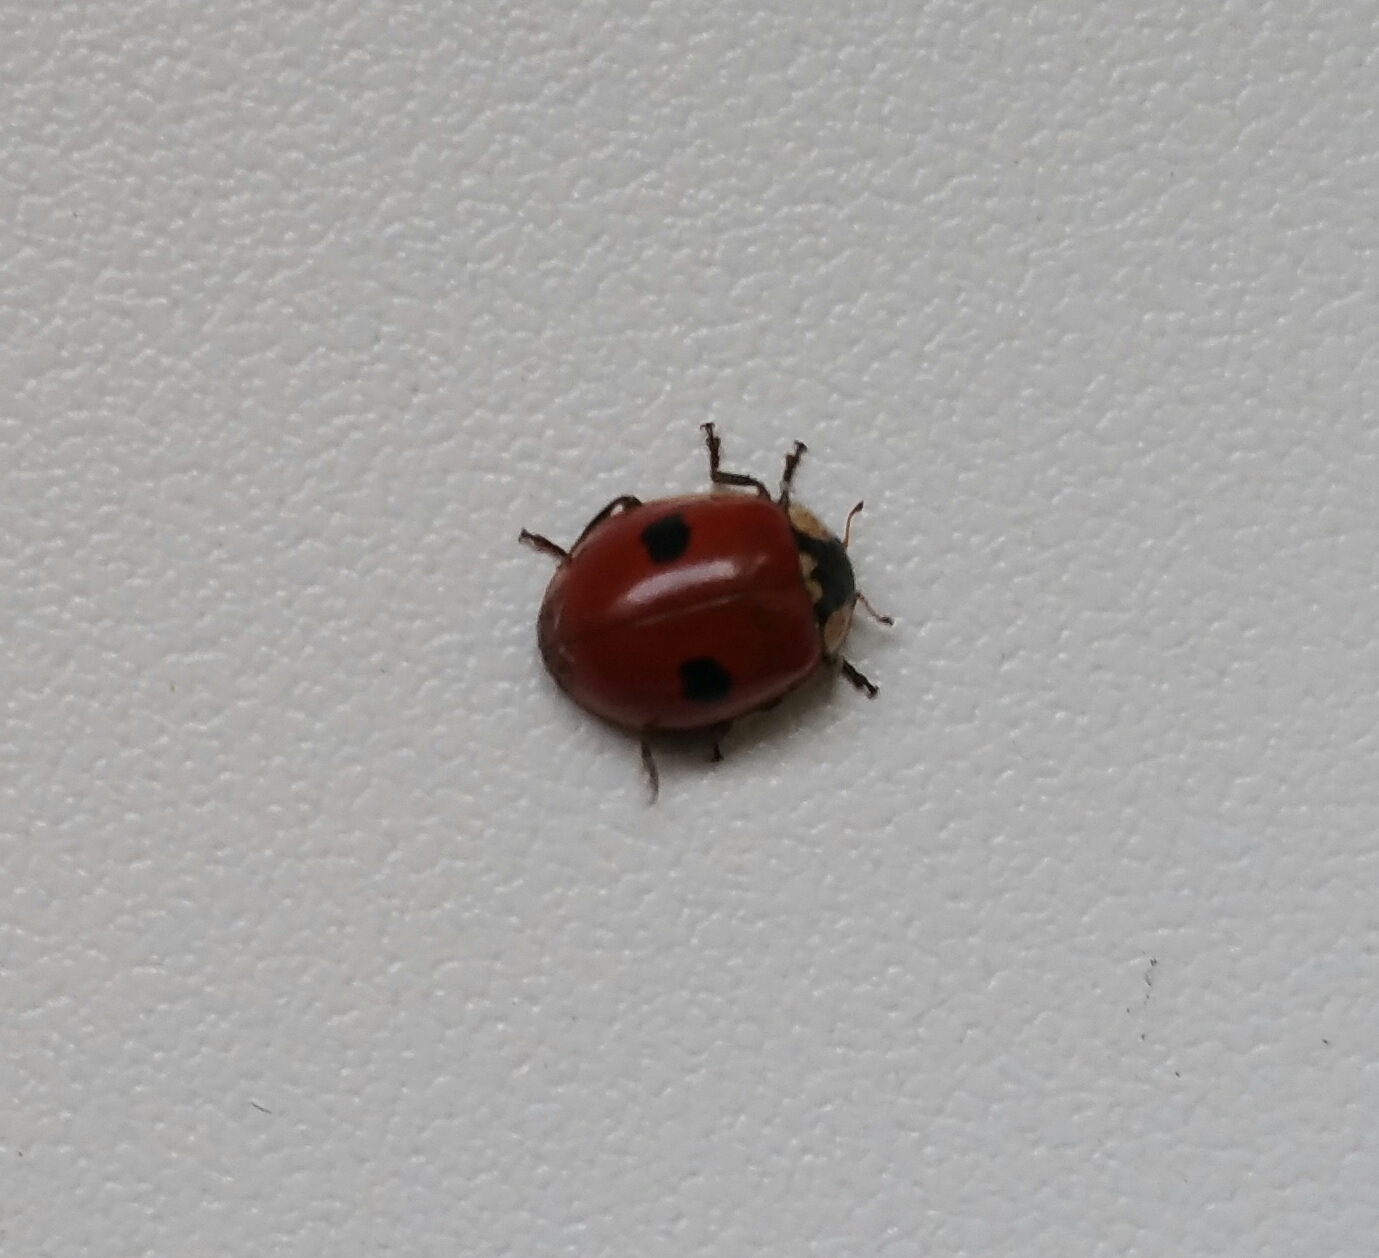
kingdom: Animalia
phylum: Arthropoda
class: Insecta
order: Coleoptera
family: Coccinellidae
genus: Adalia
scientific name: Adalia bipunctata
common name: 2-spot ladybird
